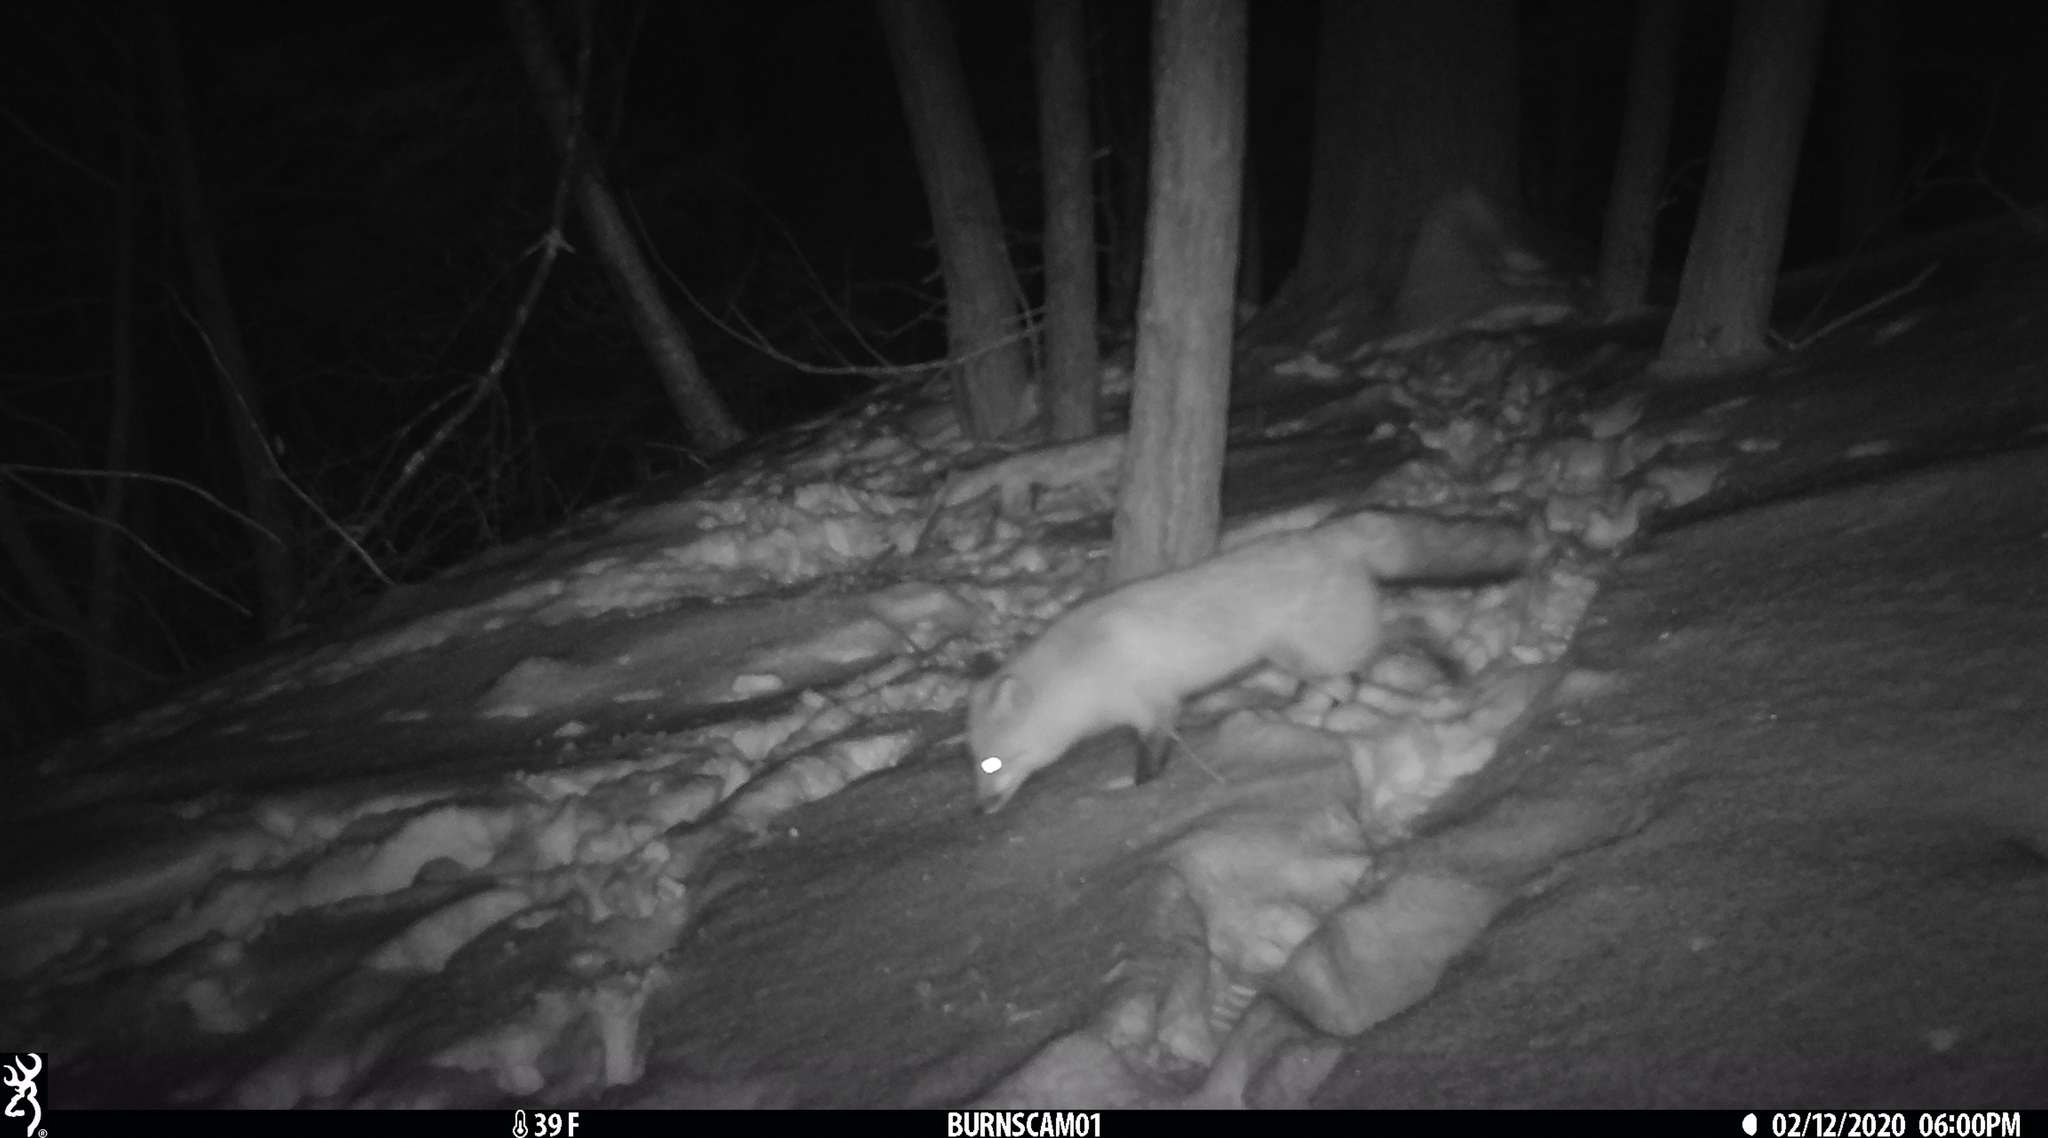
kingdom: Animalia
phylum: Chordata
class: Mammalia
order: Carnivora
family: Canidae
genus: Vulpes
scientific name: Vulpes vulpes
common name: Red fox
